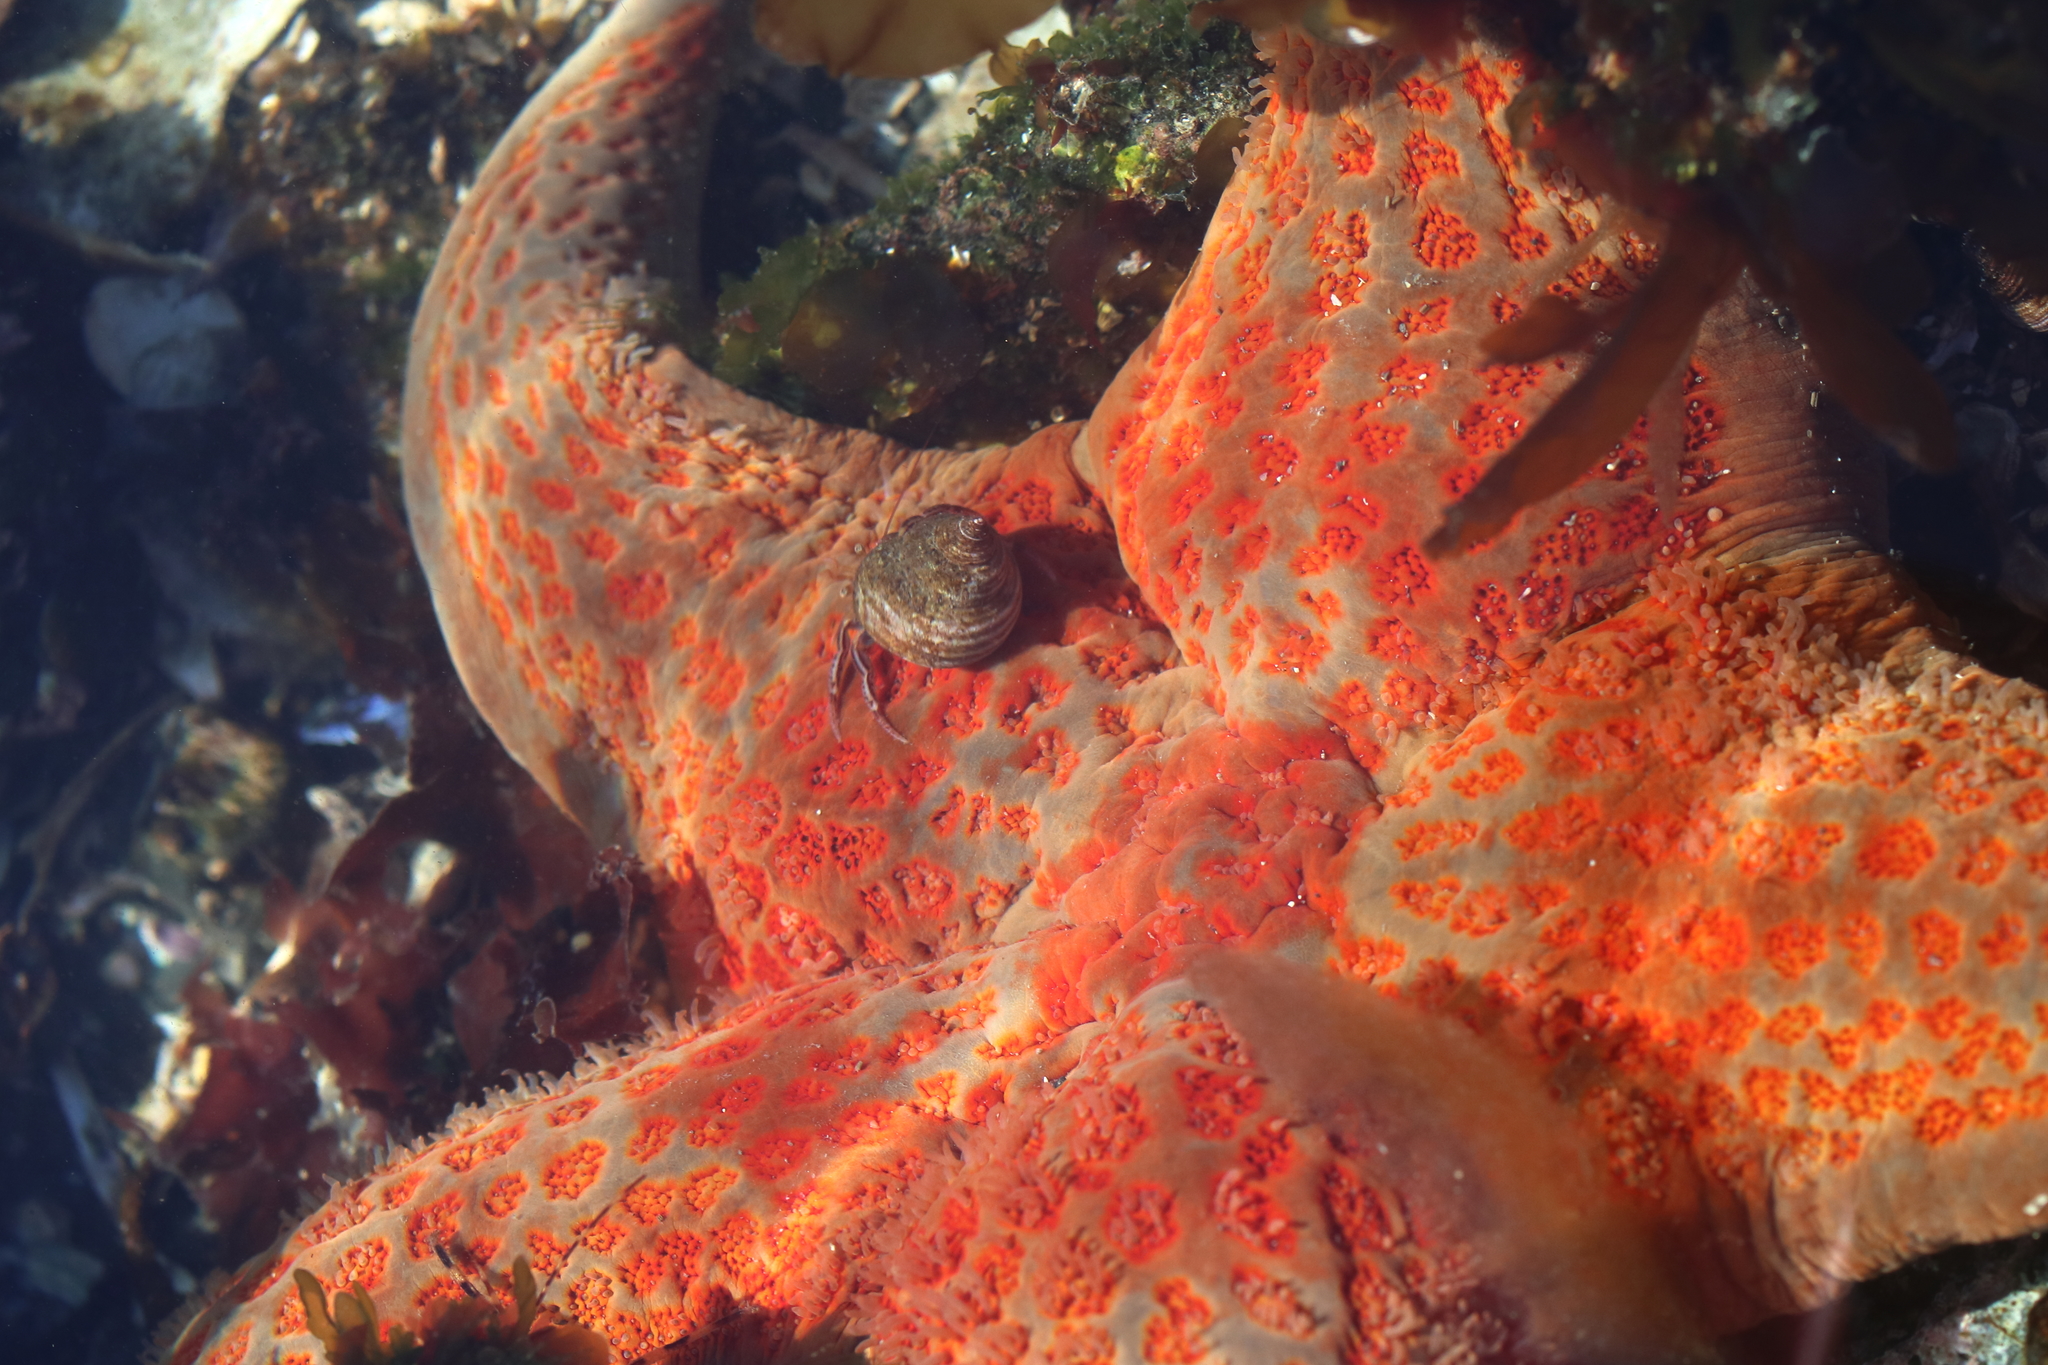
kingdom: Animalia
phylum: Echinodermata
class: Asteroidea
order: Valvatida
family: Asteropseidae
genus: Dermasterias
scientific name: Dermasterias imbricata
